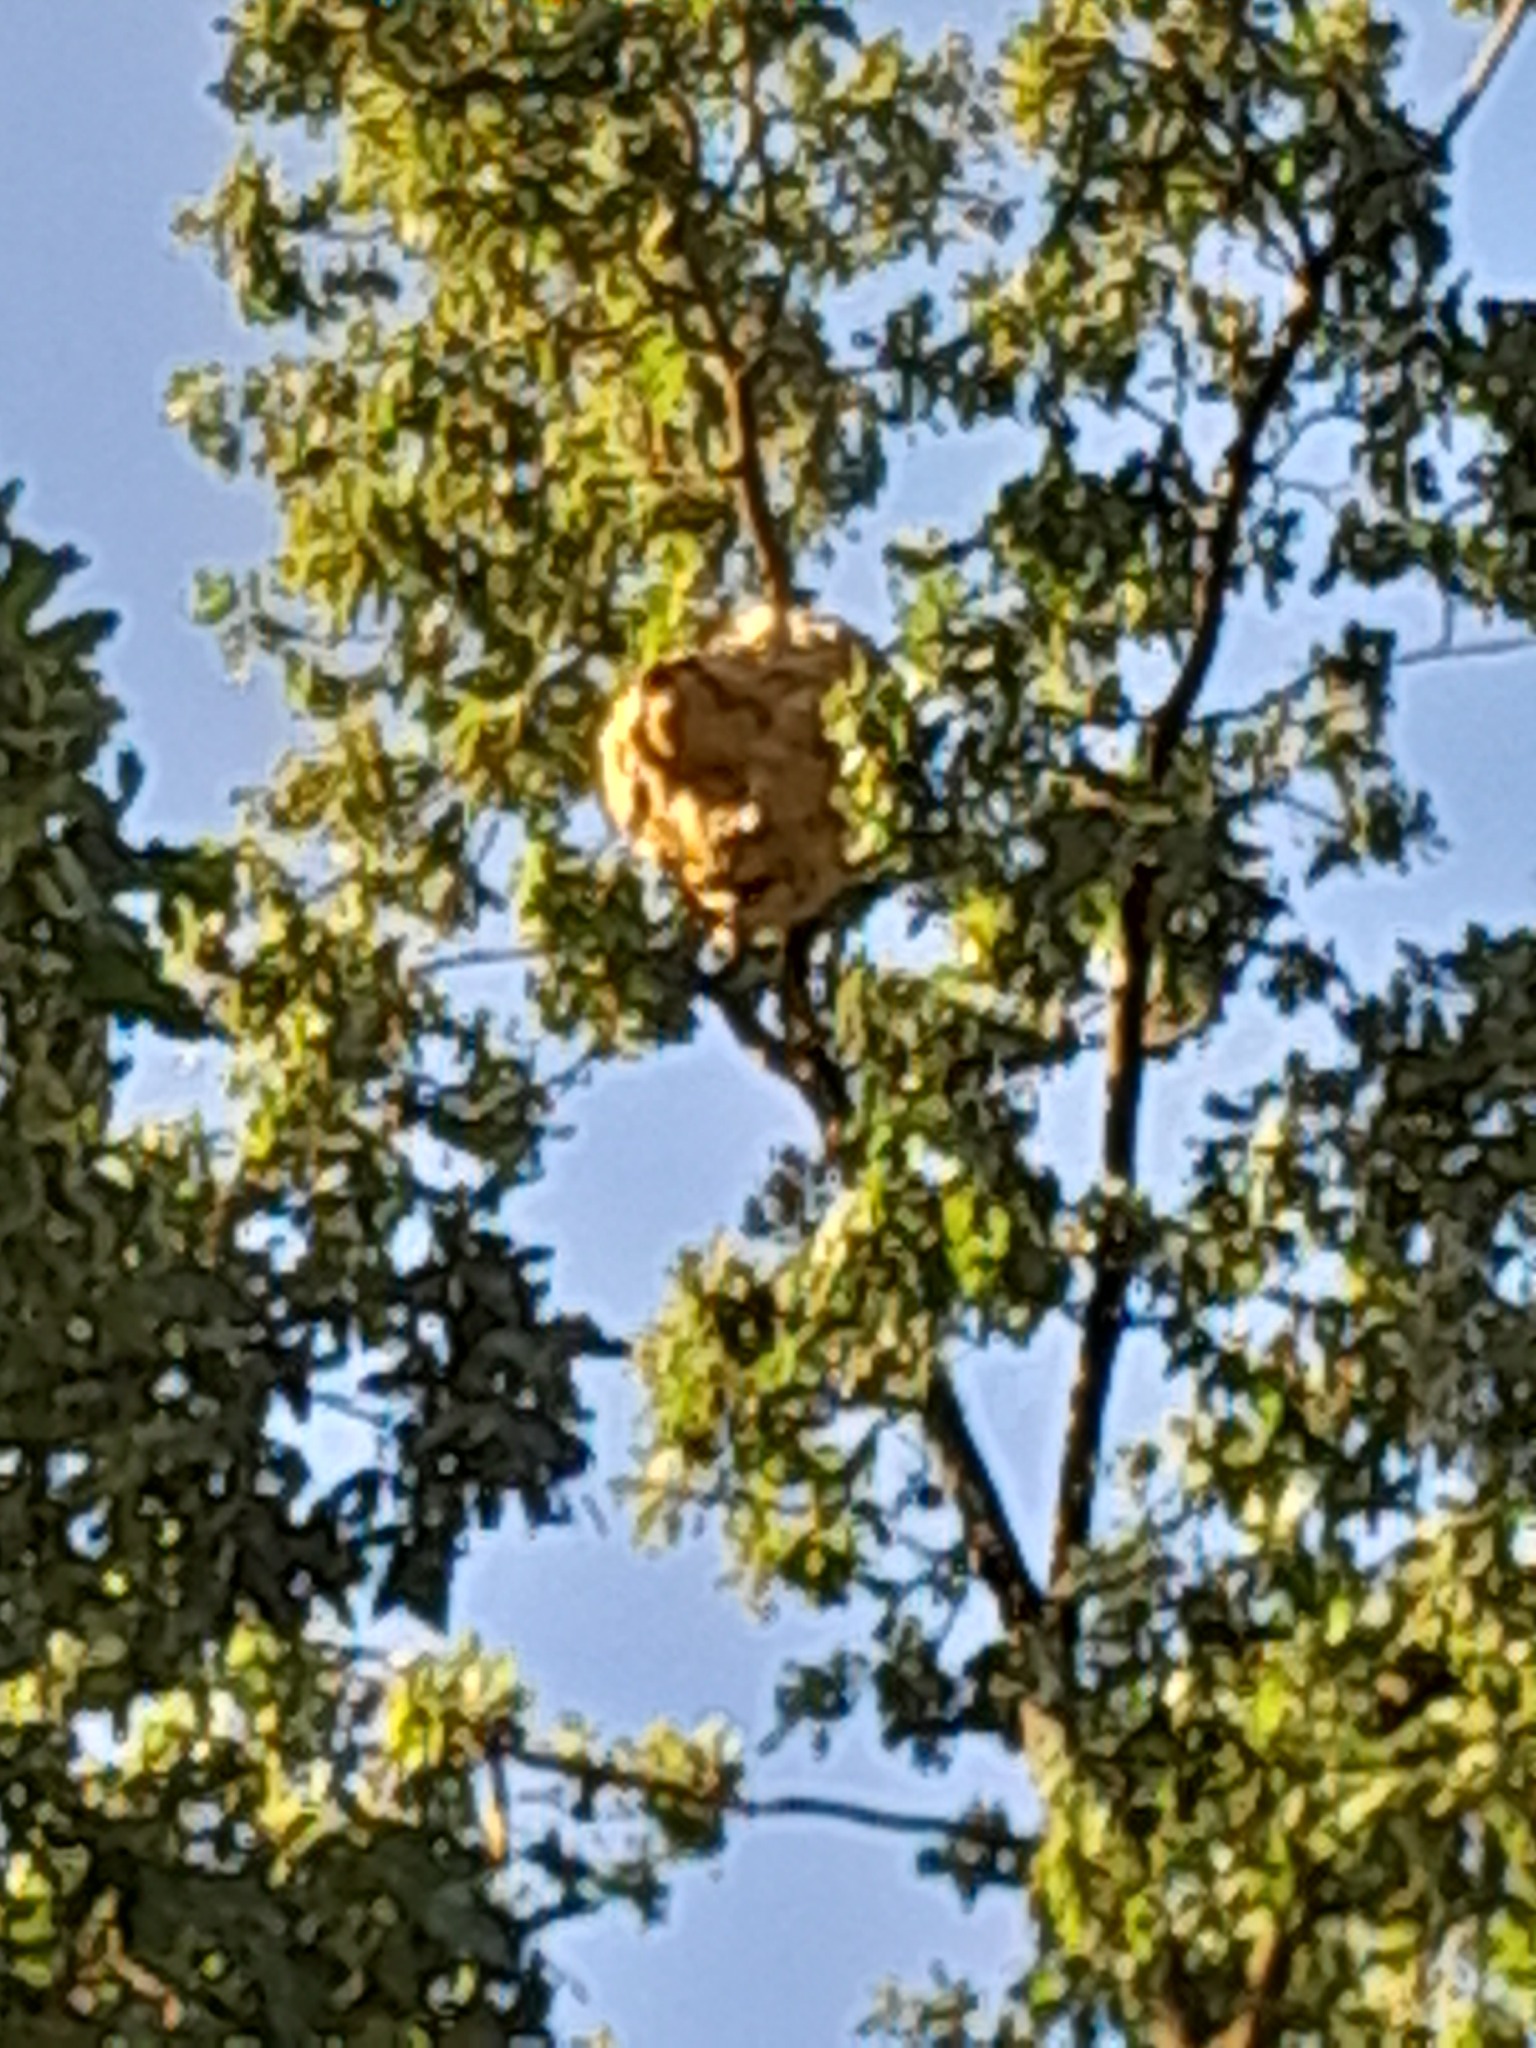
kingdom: Animalia
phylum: Arthropoda
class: Insecta
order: Hymenoptera
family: Vespidae
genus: Vespa
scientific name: Vespa velutina
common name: Asian hornet
